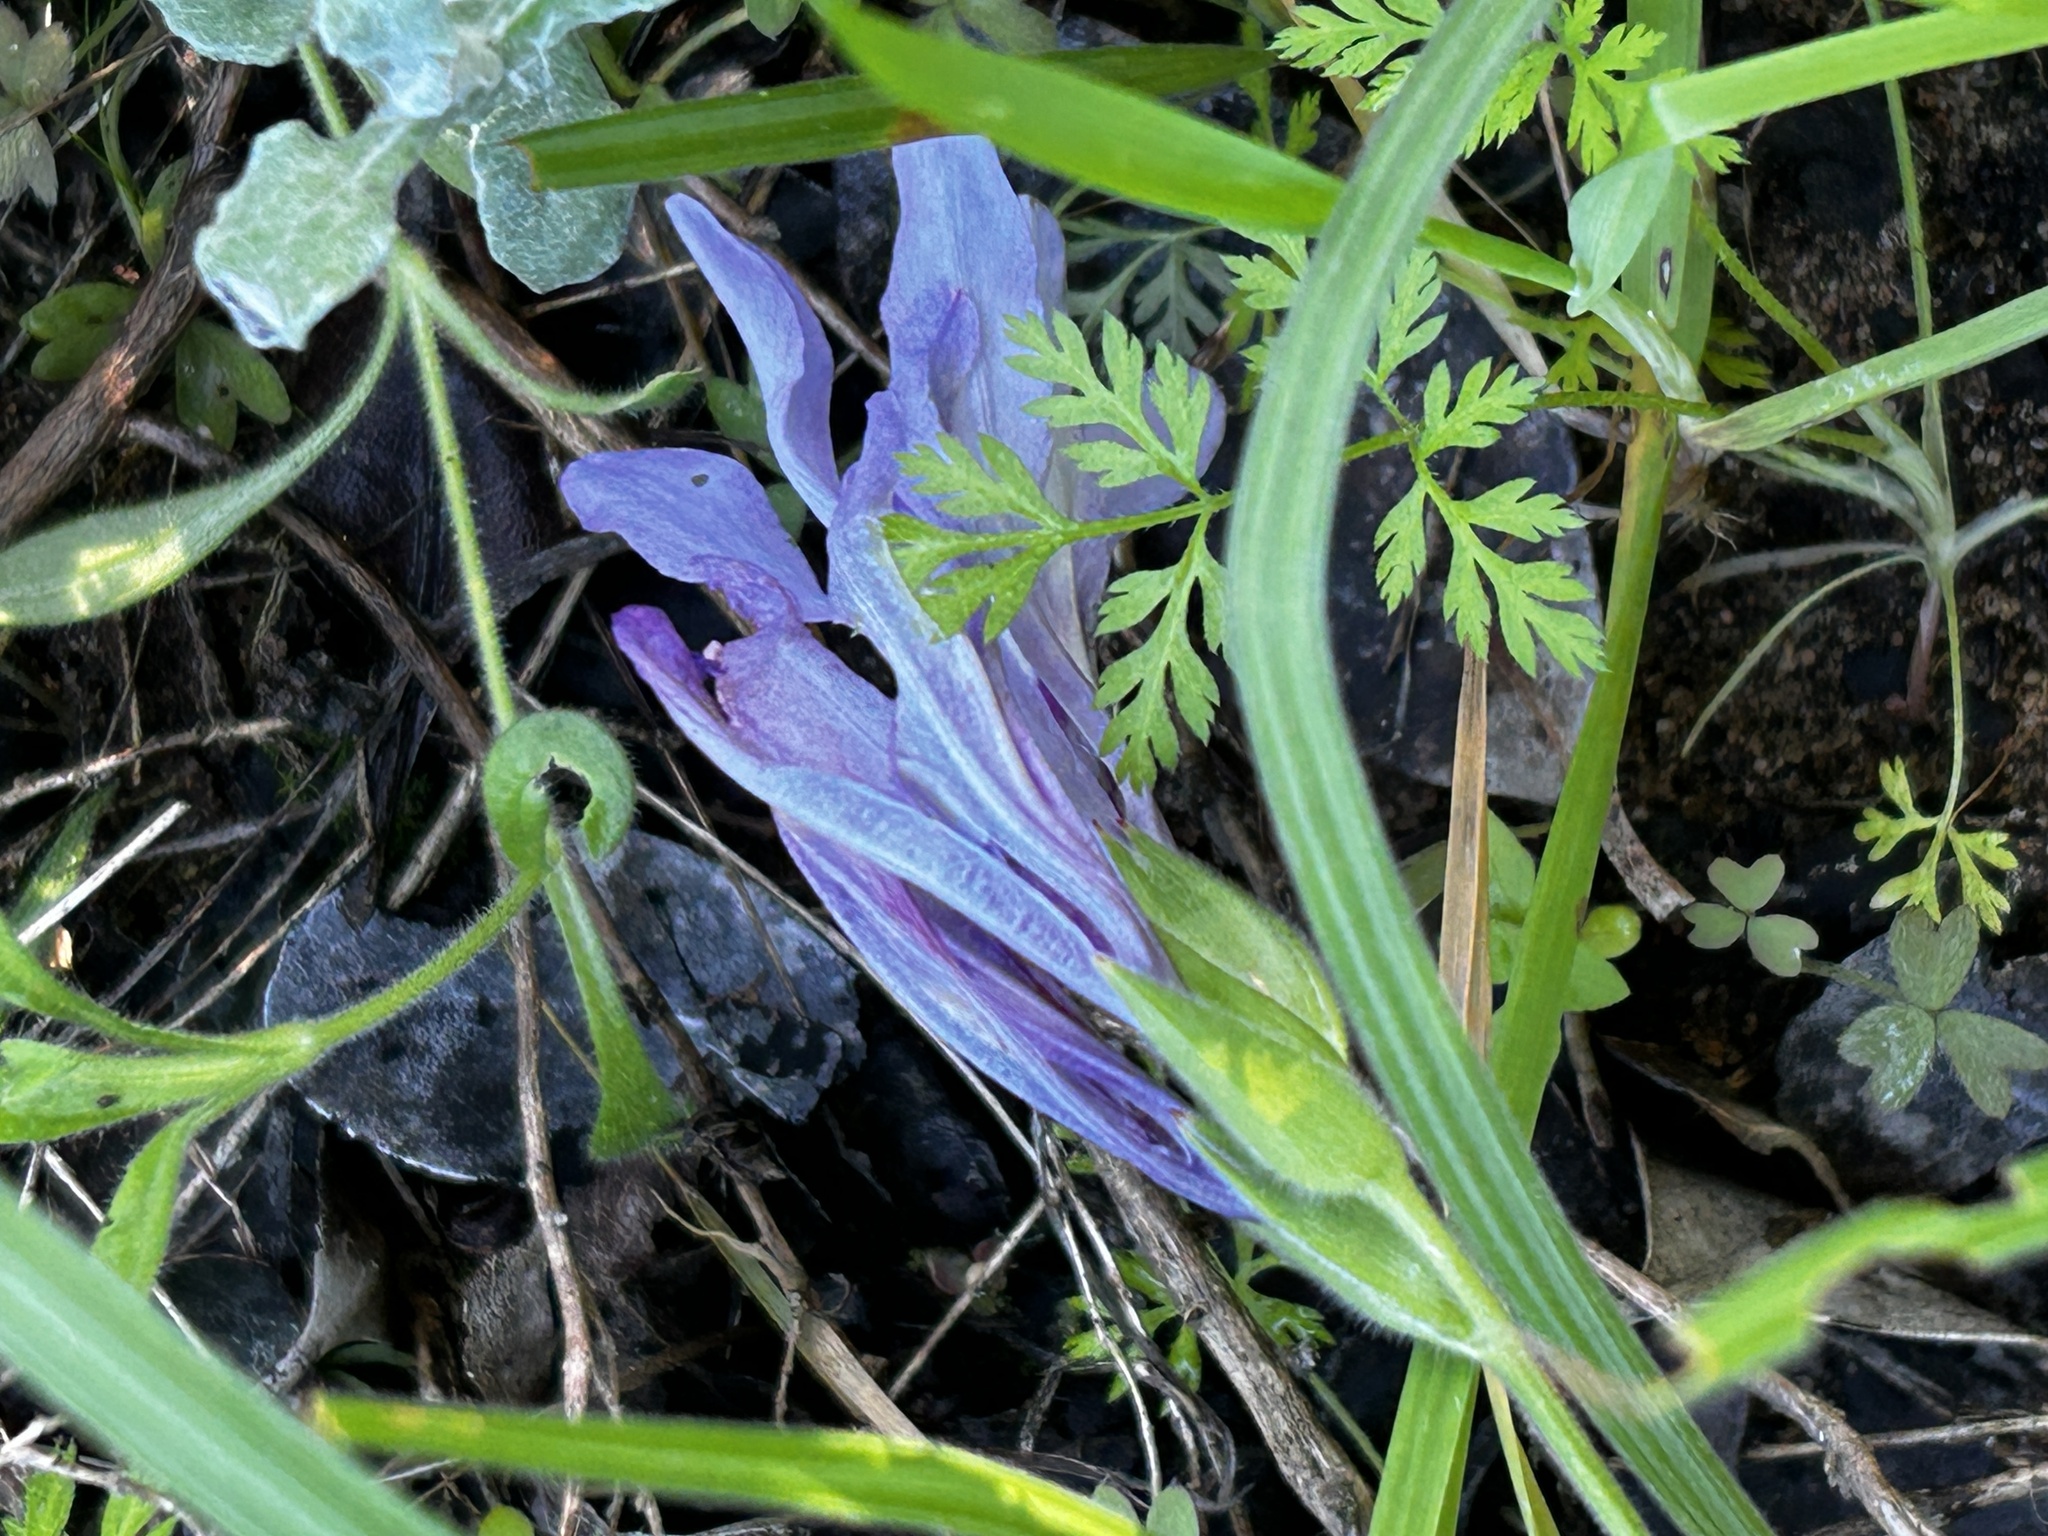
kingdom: Plantae
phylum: Tracheophyta
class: Liliopsida
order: Asparagales
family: Iridaceae
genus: Babiana
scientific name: Babiana ambigua
